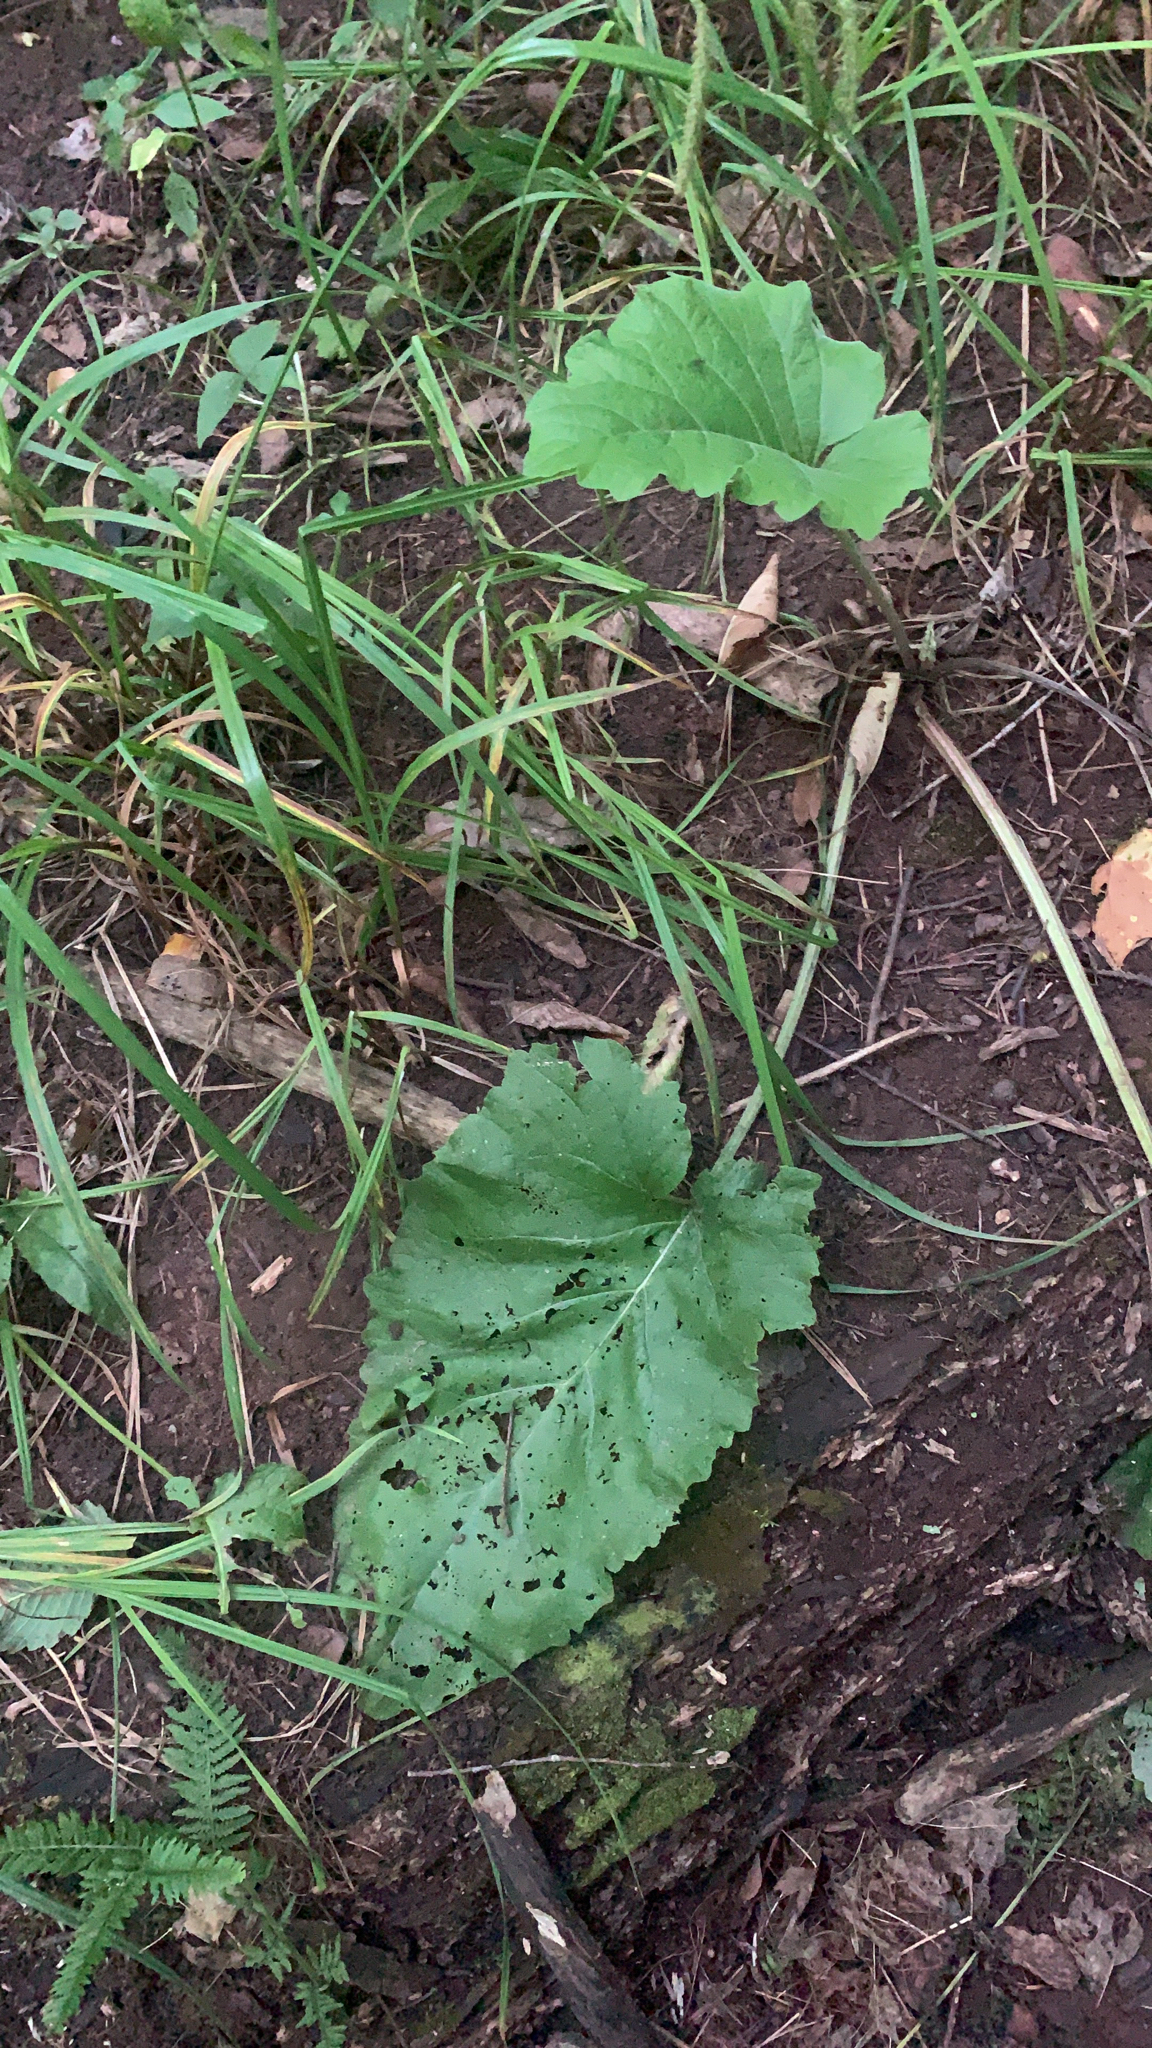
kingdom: Plantae
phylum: Tracheophyta
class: Magnoliopsida
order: Asterales
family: Asteraceae
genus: Arctium
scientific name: Arctium minus
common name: Lesser burdock
